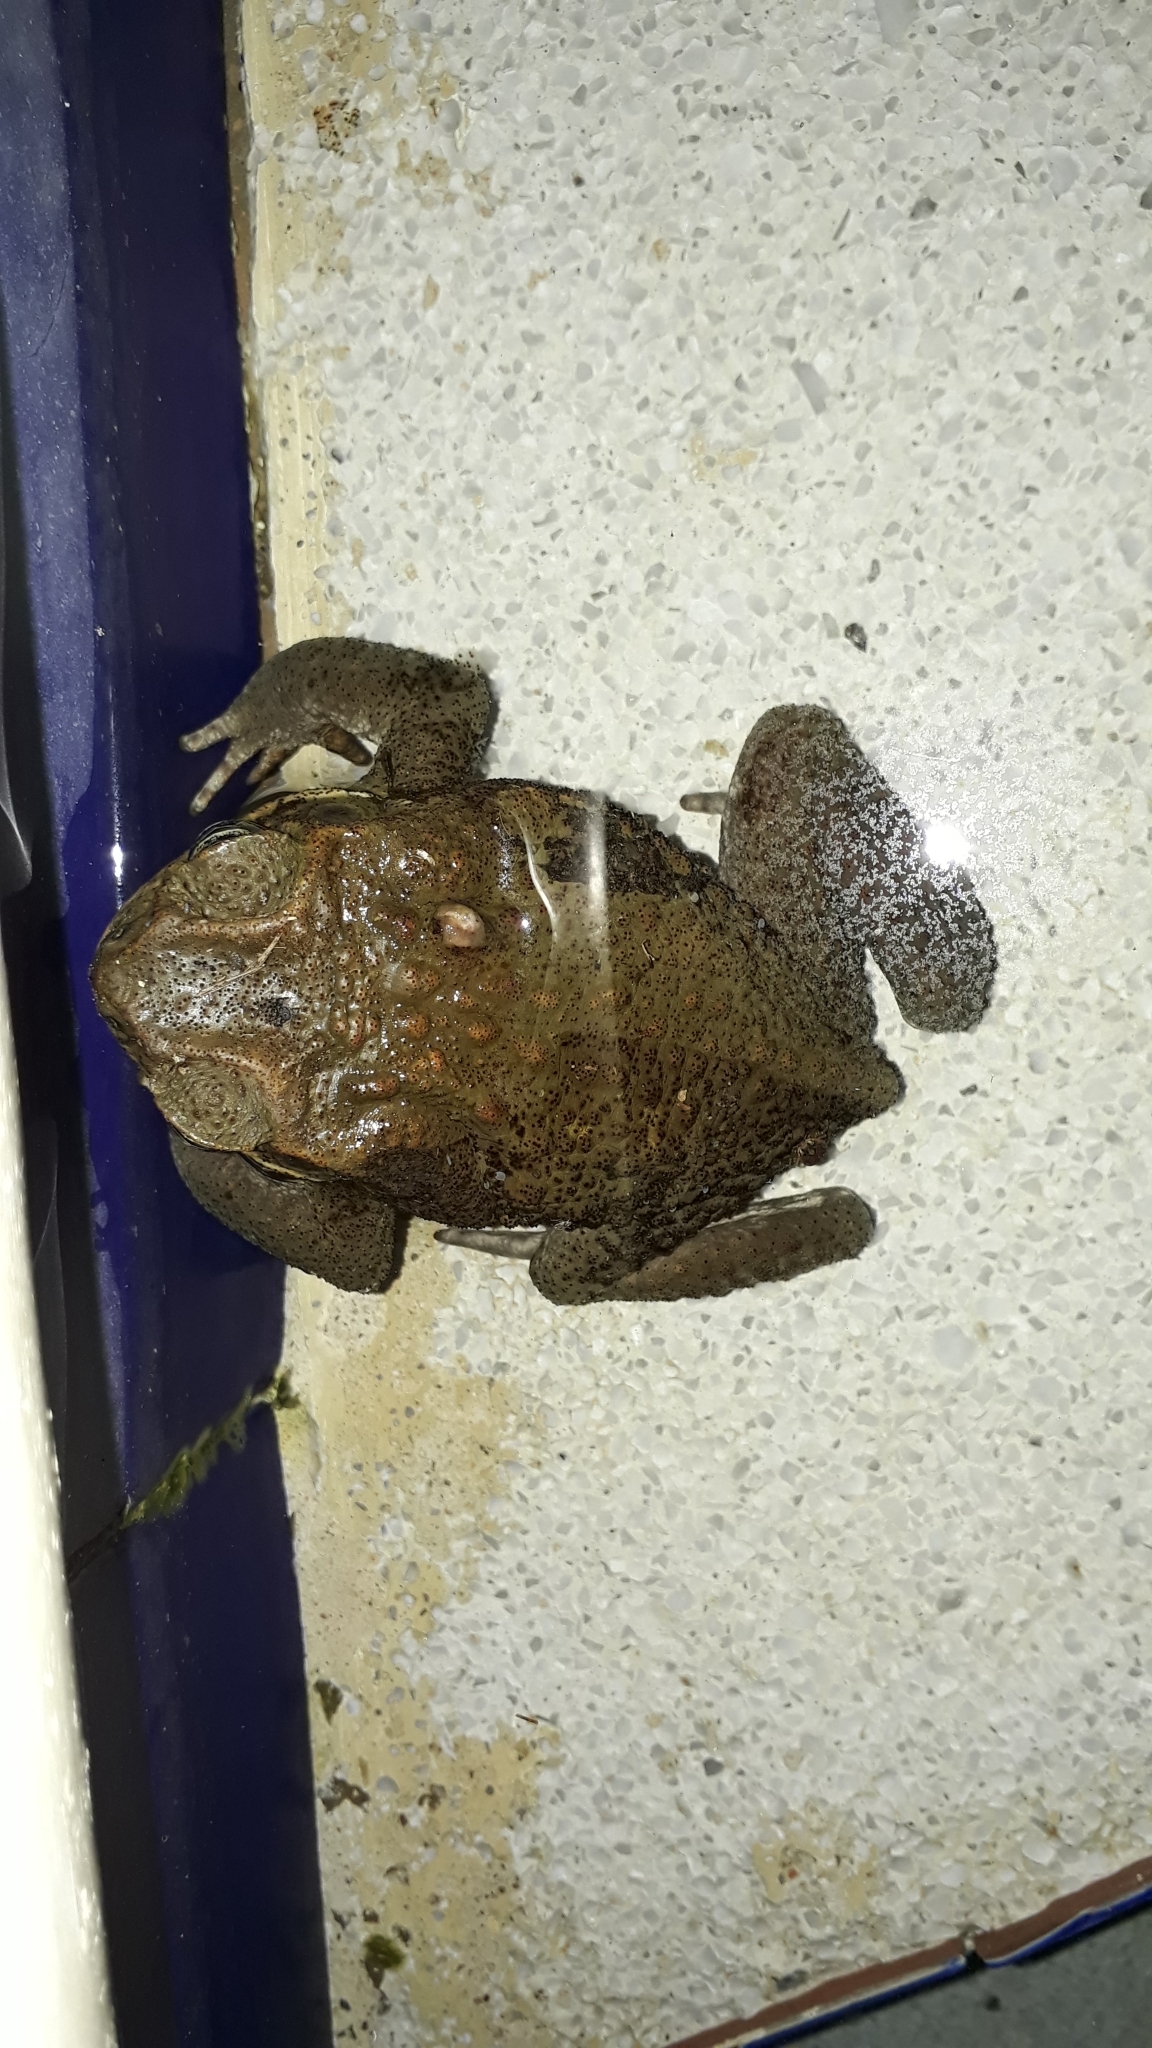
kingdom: Animalia
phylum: Chordata
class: Amphibia
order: Anura
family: Bufonidae
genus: Rhinella
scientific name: Rhinella marina
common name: Cane toad
